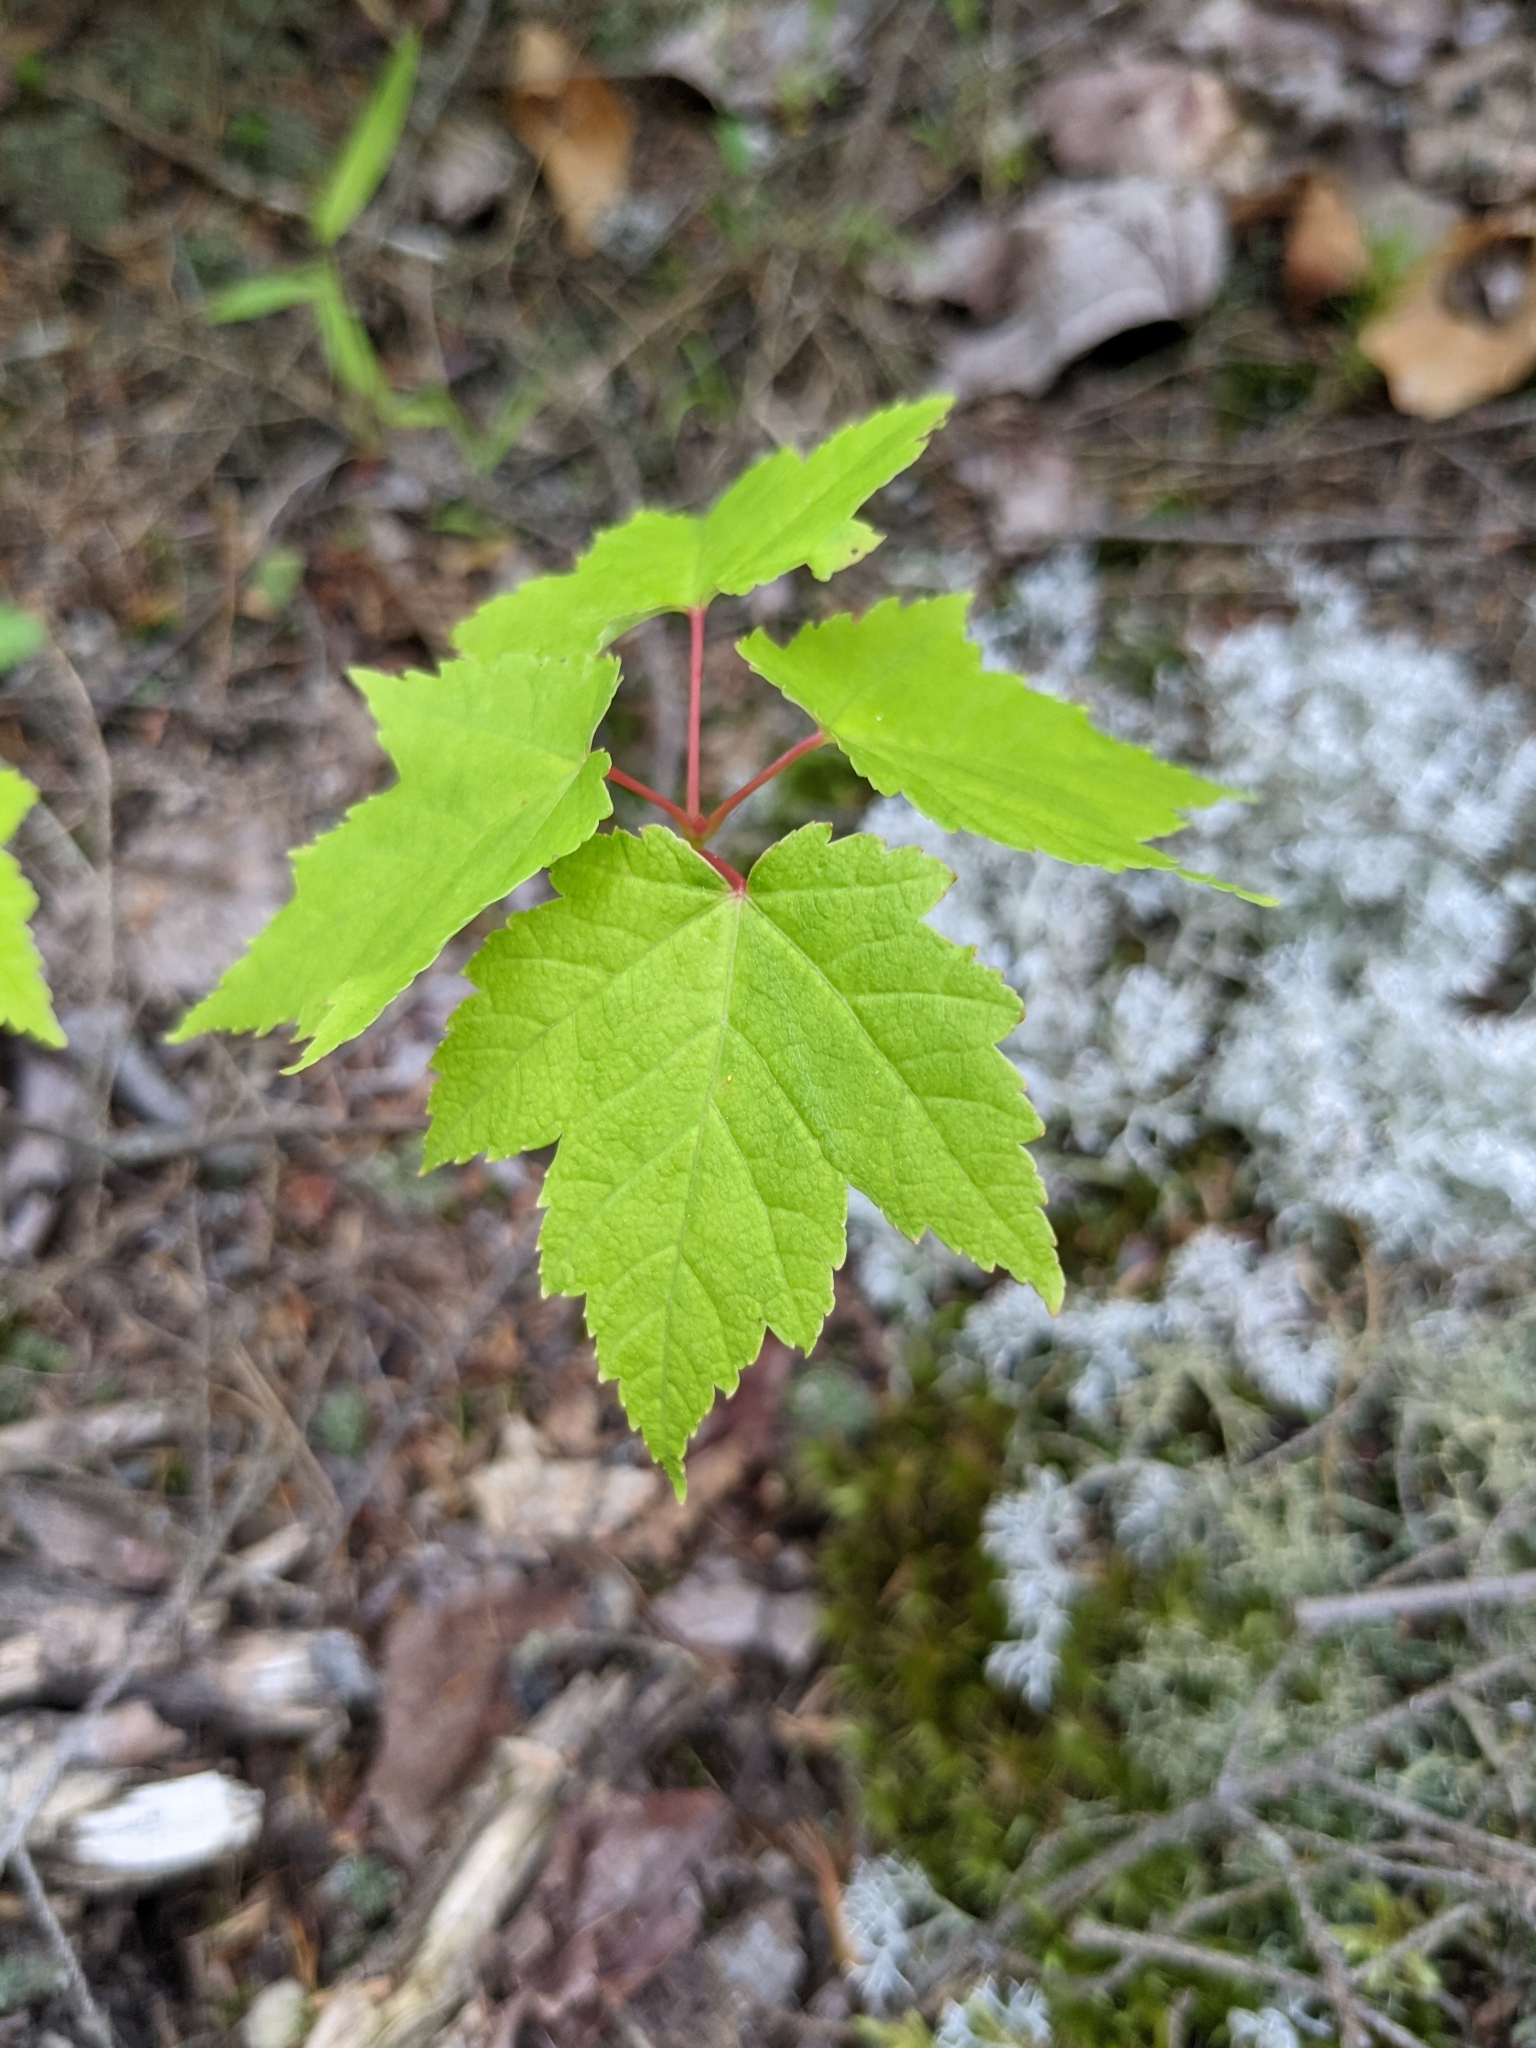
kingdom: Plantae
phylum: Tracheophyta
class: Magnoliopsida
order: Sapindales
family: Sapindaceae
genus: Acer
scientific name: Acer rubrum
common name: Red maple
